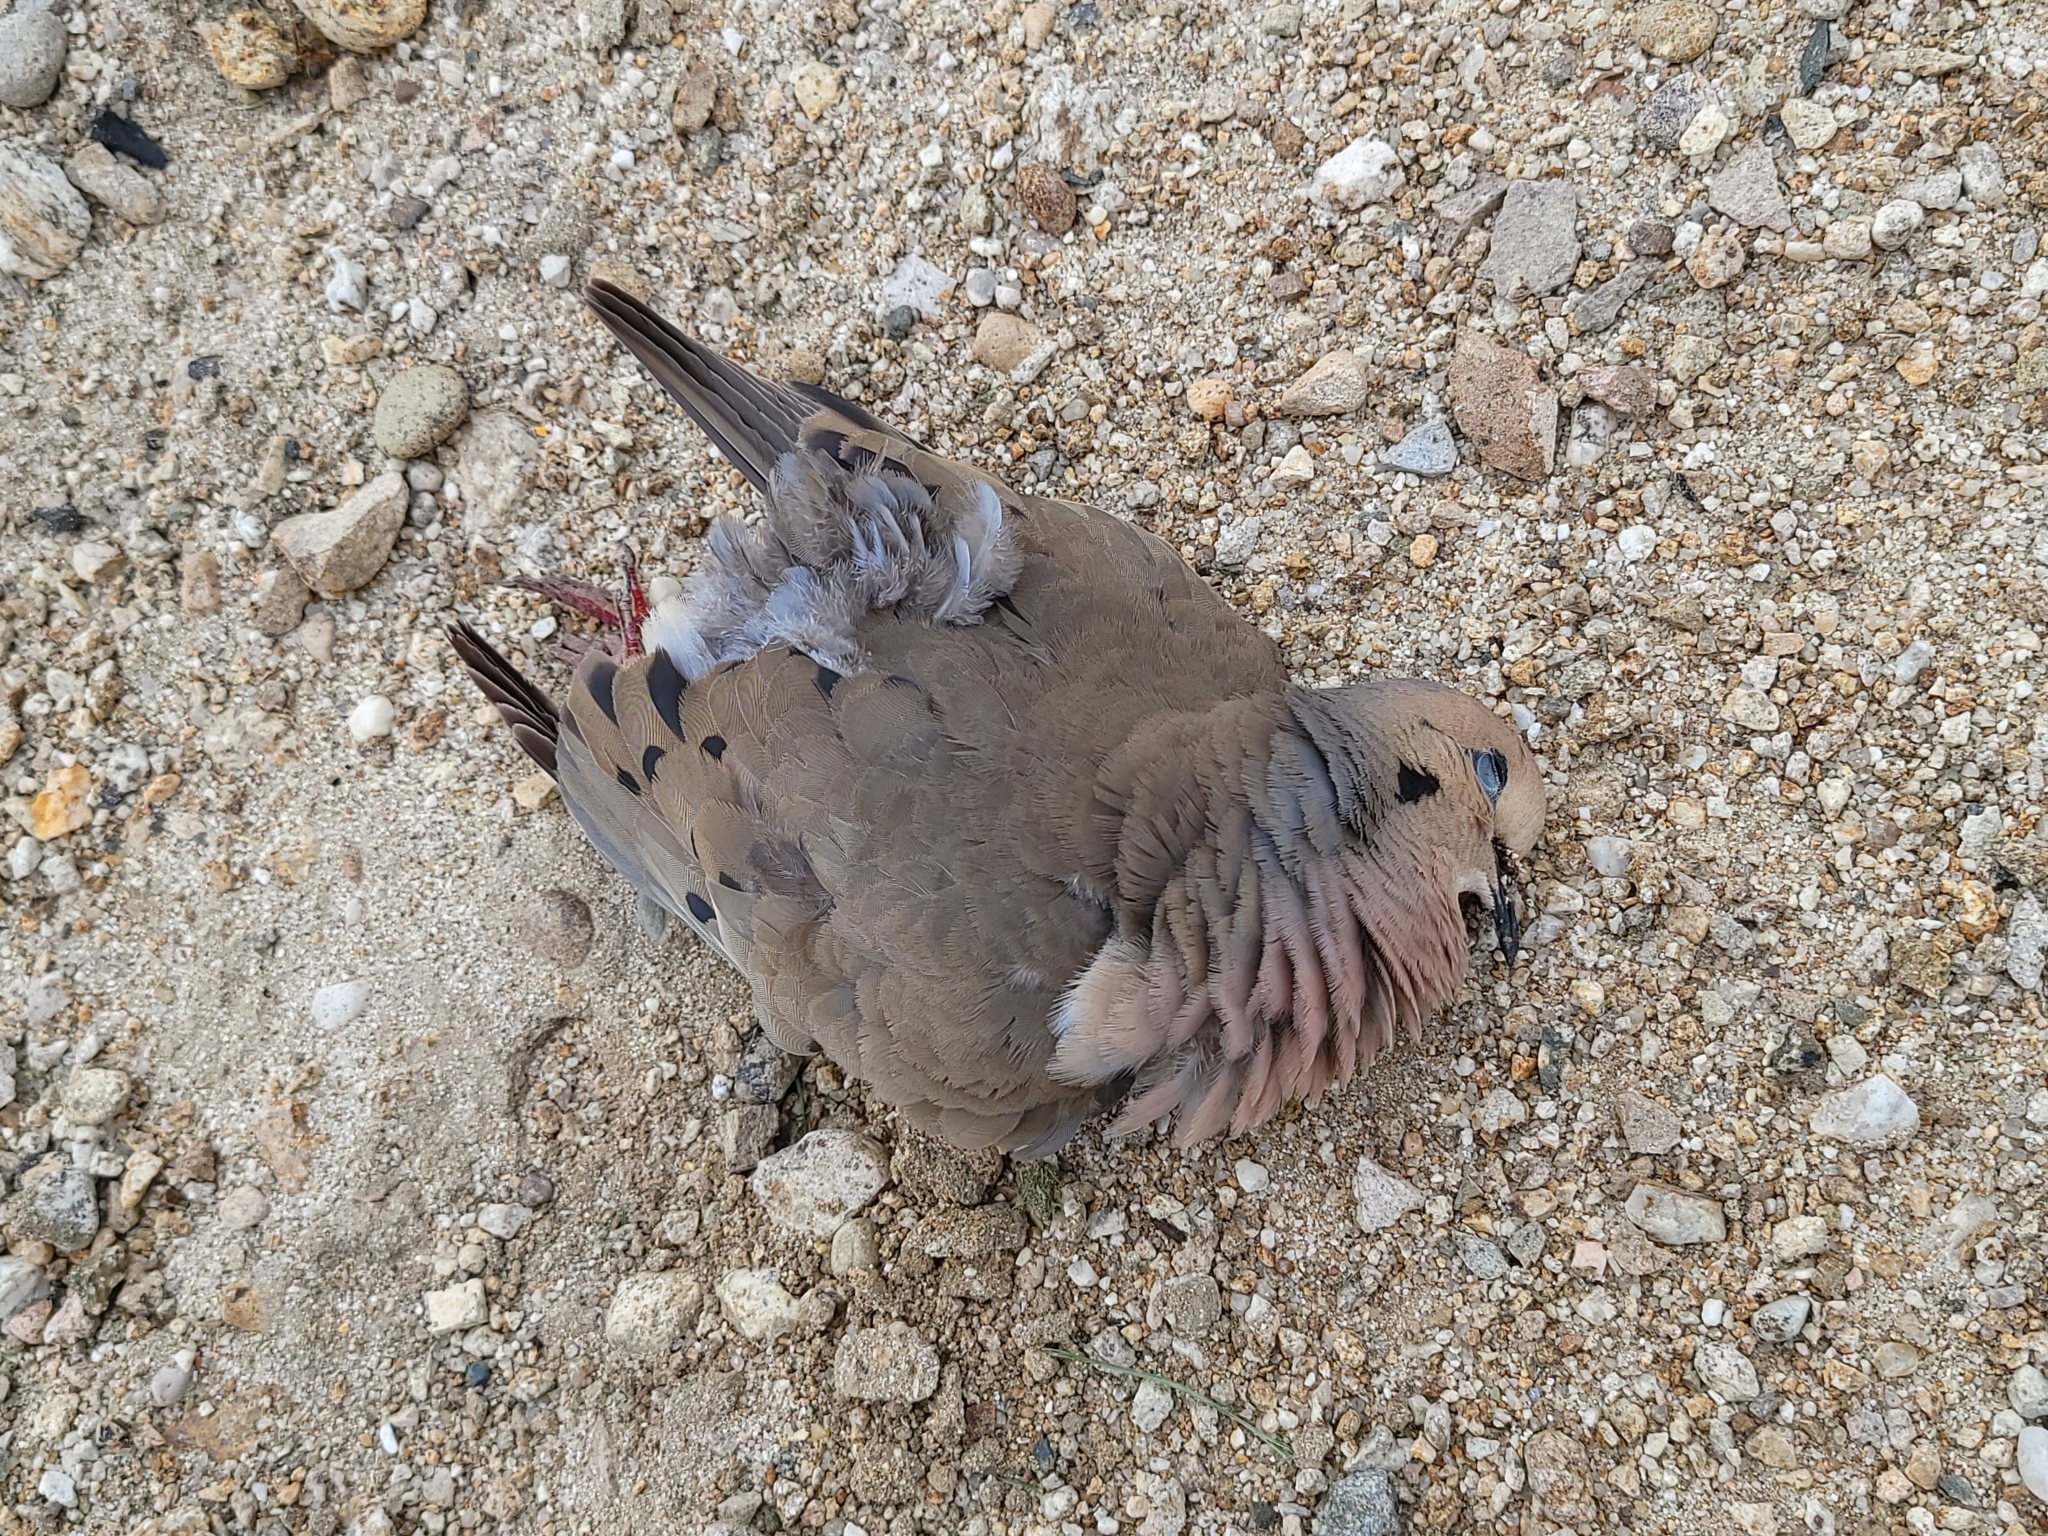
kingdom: Animalia
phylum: Chordata
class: Aves
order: Columbiformes
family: Columbidae
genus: Zenaida
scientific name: Zenaida macroura
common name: Mourning dove
